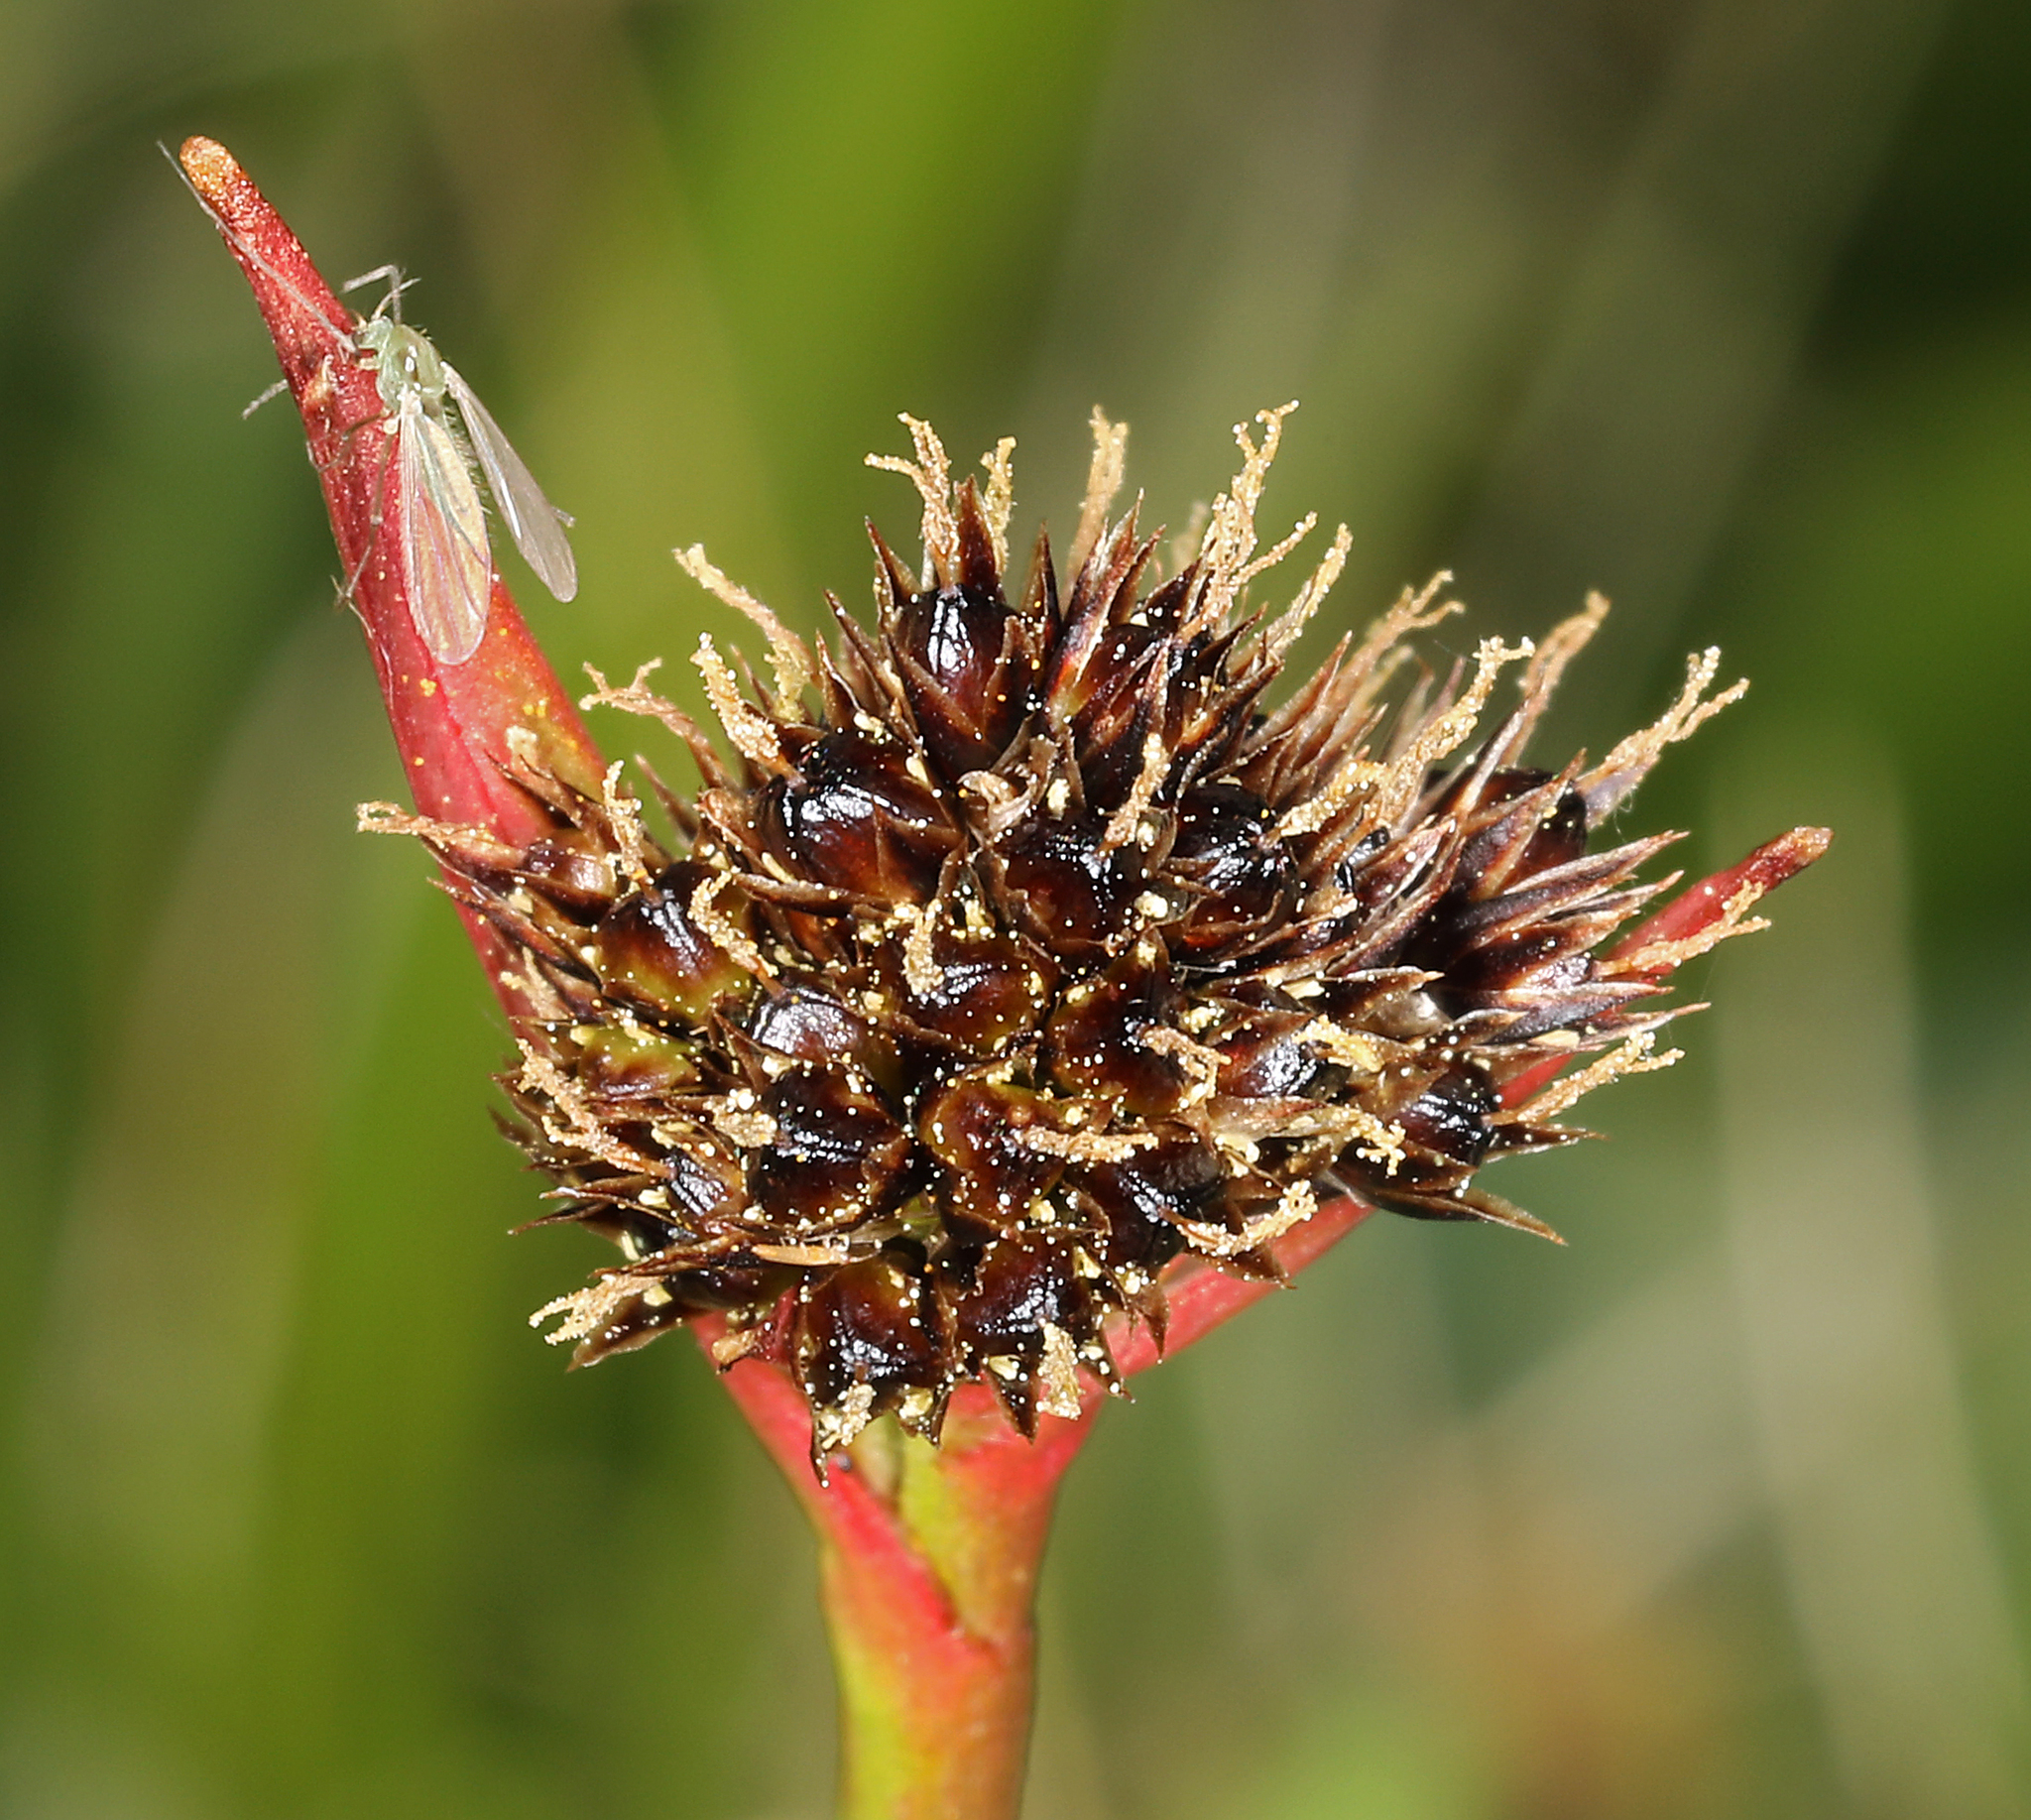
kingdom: Plantae
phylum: Tracheophyta
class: Liliopsida
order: Poales
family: Juncaceae
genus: Luzula
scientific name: Luzula orestera
